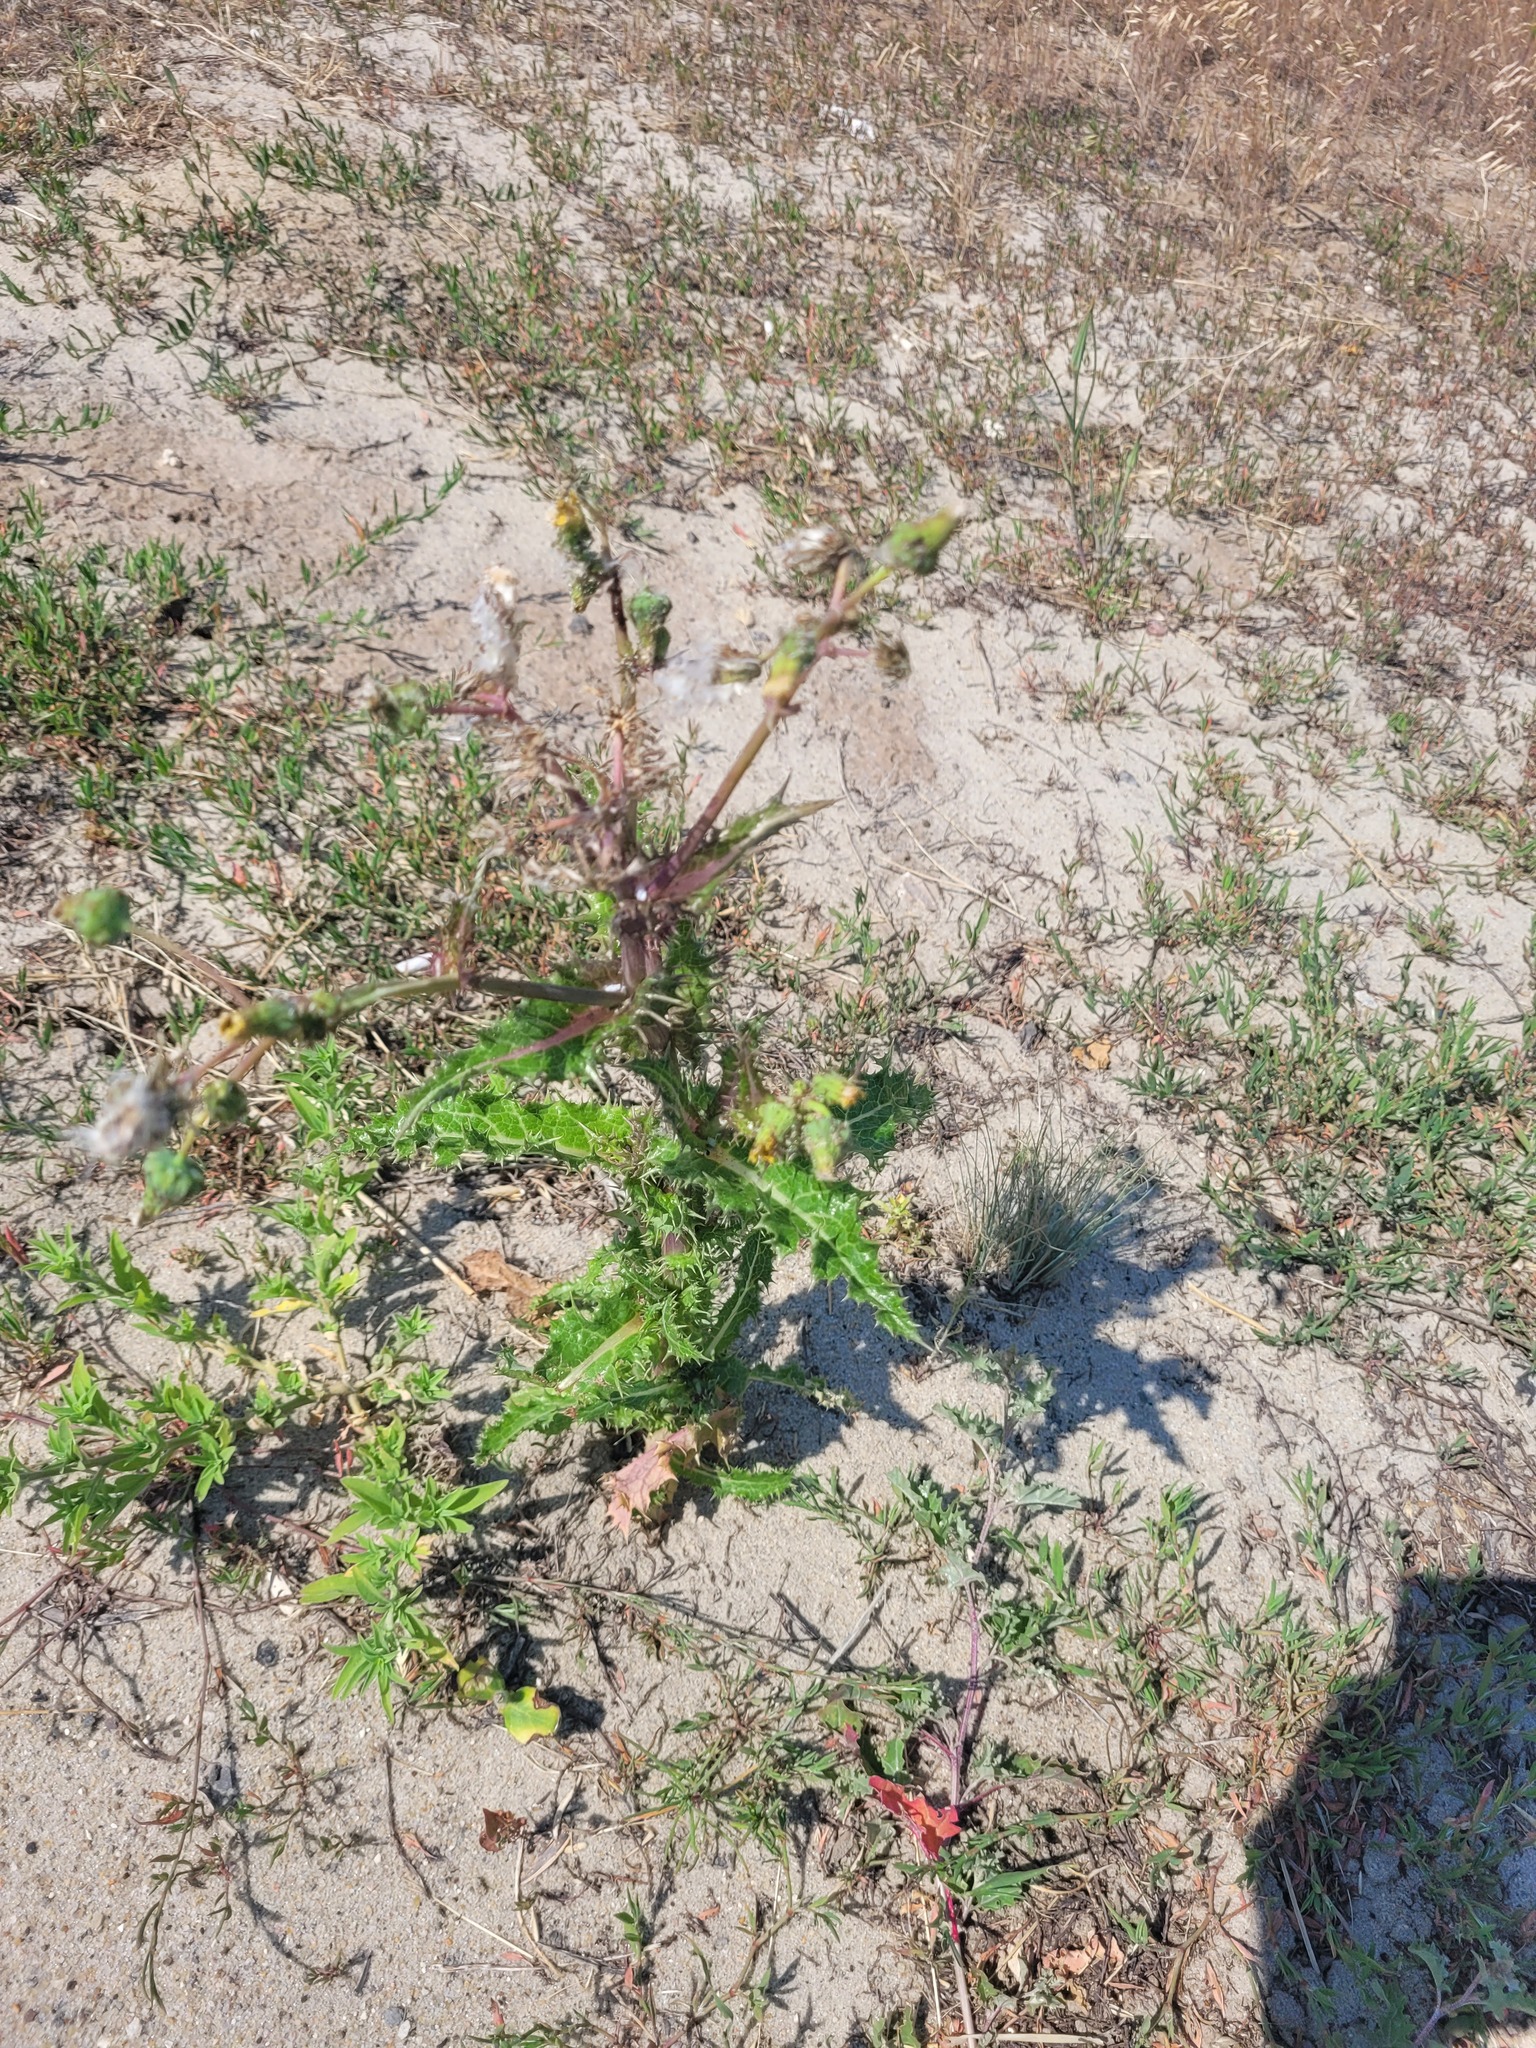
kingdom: Plantae
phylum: Tracheophyta
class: Magnoliopsida
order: Asterales
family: Asteraceae
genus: Sonchus
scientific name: Sonchus asper
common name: Prickly sow-thistle
